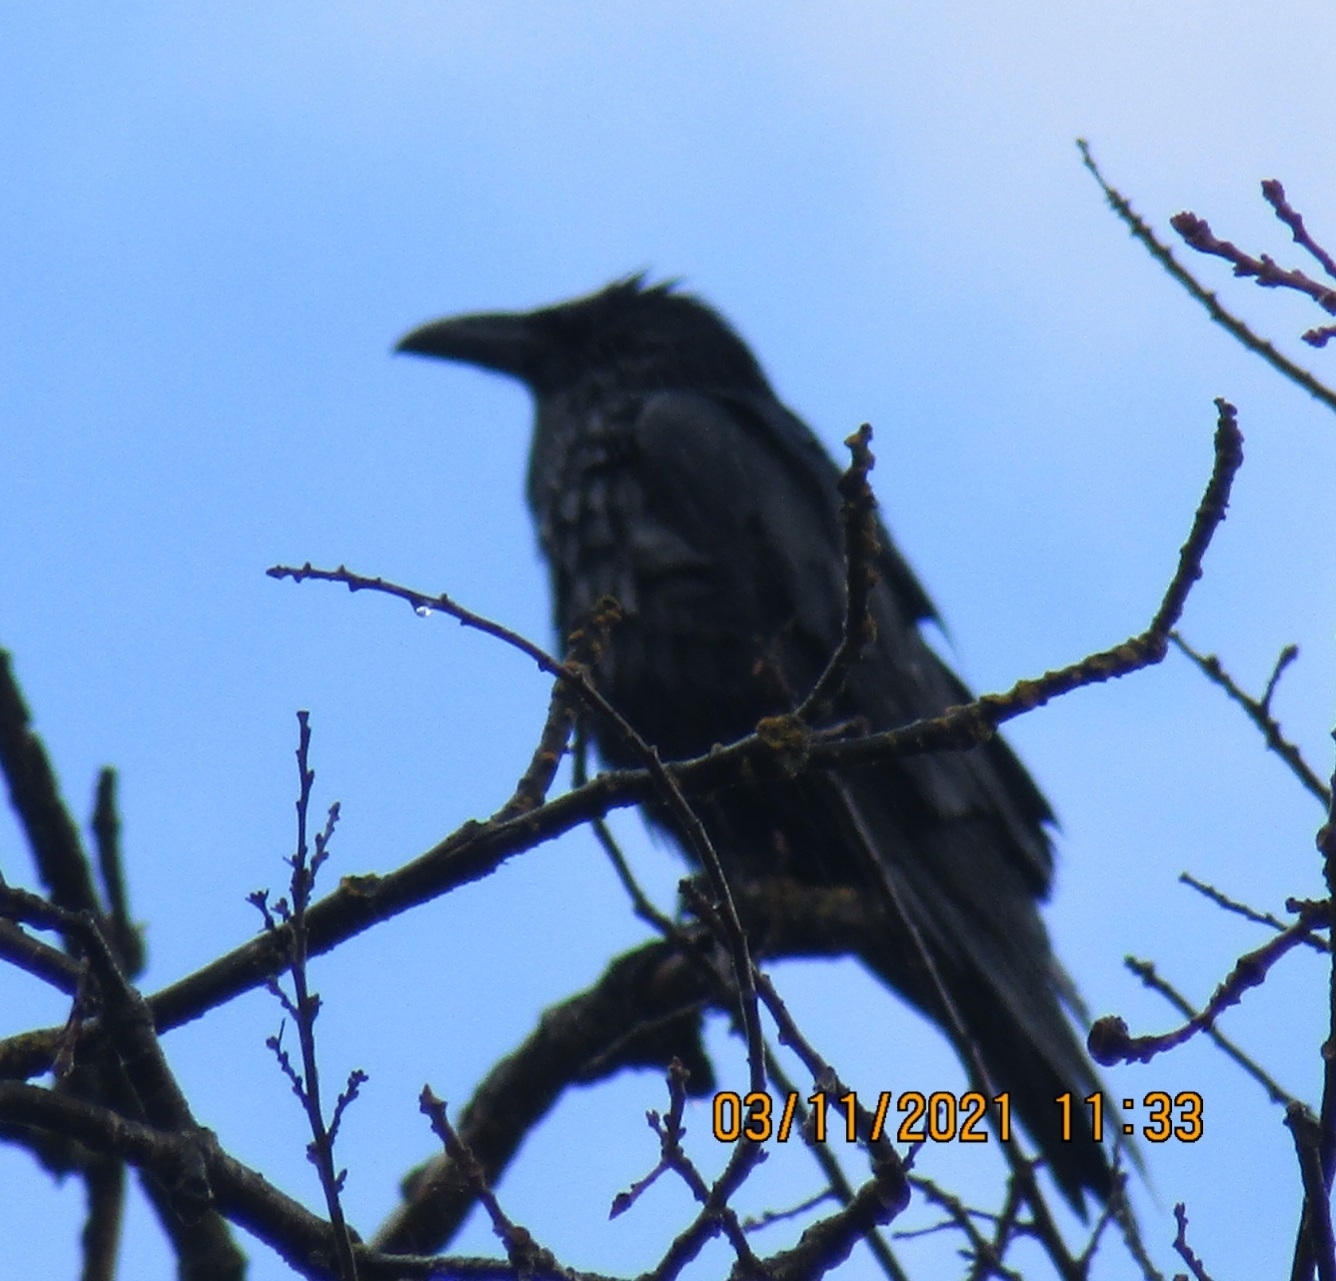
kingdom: Animalia
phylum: Chordata
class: Aves
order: Passeriformes
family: Corvidae
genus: Corvus
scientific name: Corvus corax
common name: Common raven
